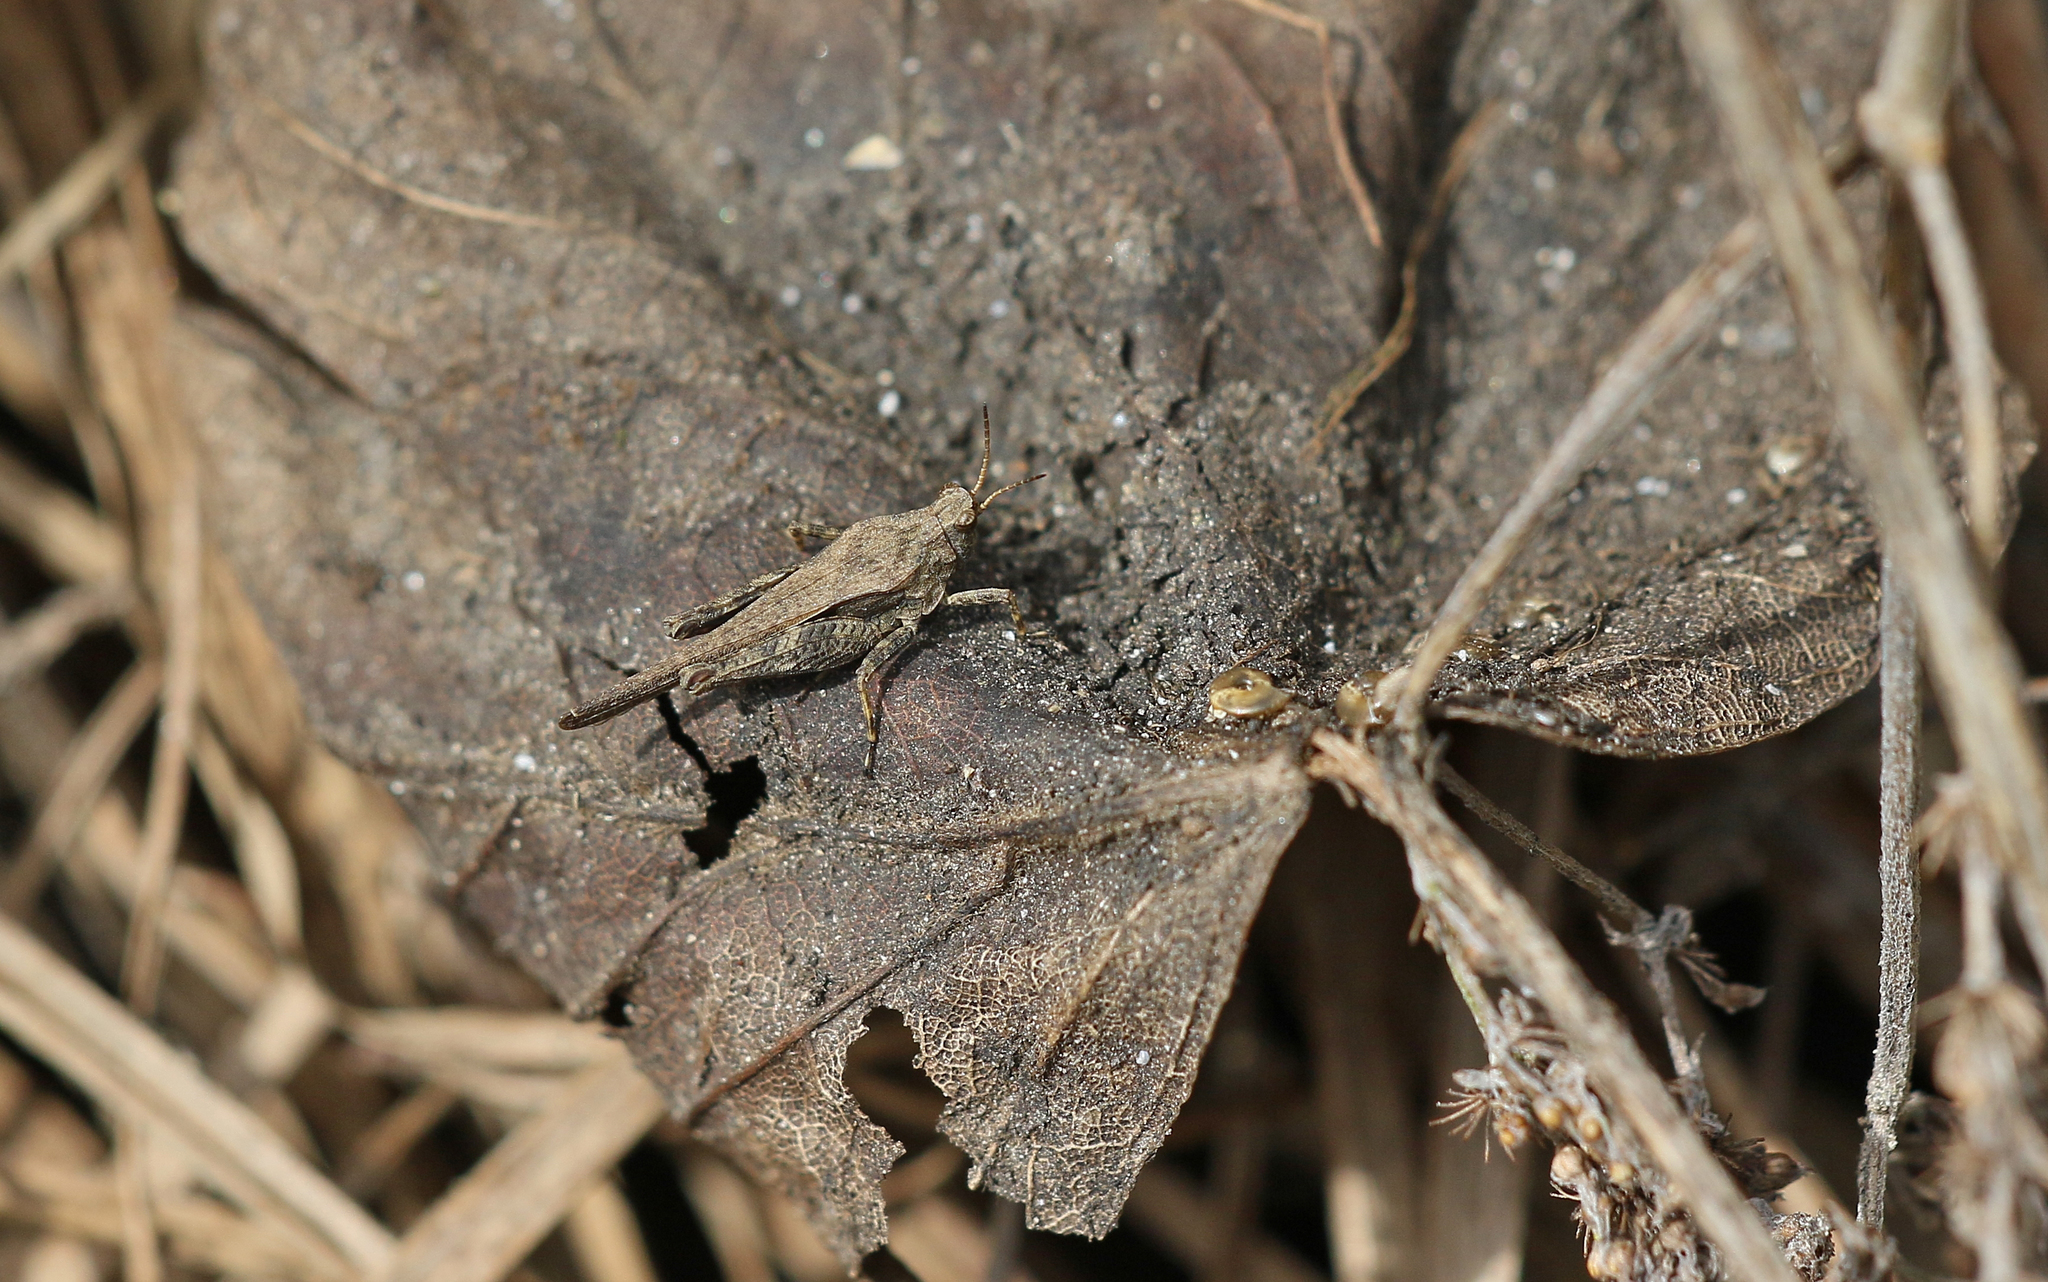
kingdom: Animalia
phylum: Arthropoda
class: Insecta
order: Orthoptera
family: Tetrigidae
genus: Tetrix
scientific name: Tetrix subulata
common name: Slender ground-hopper
